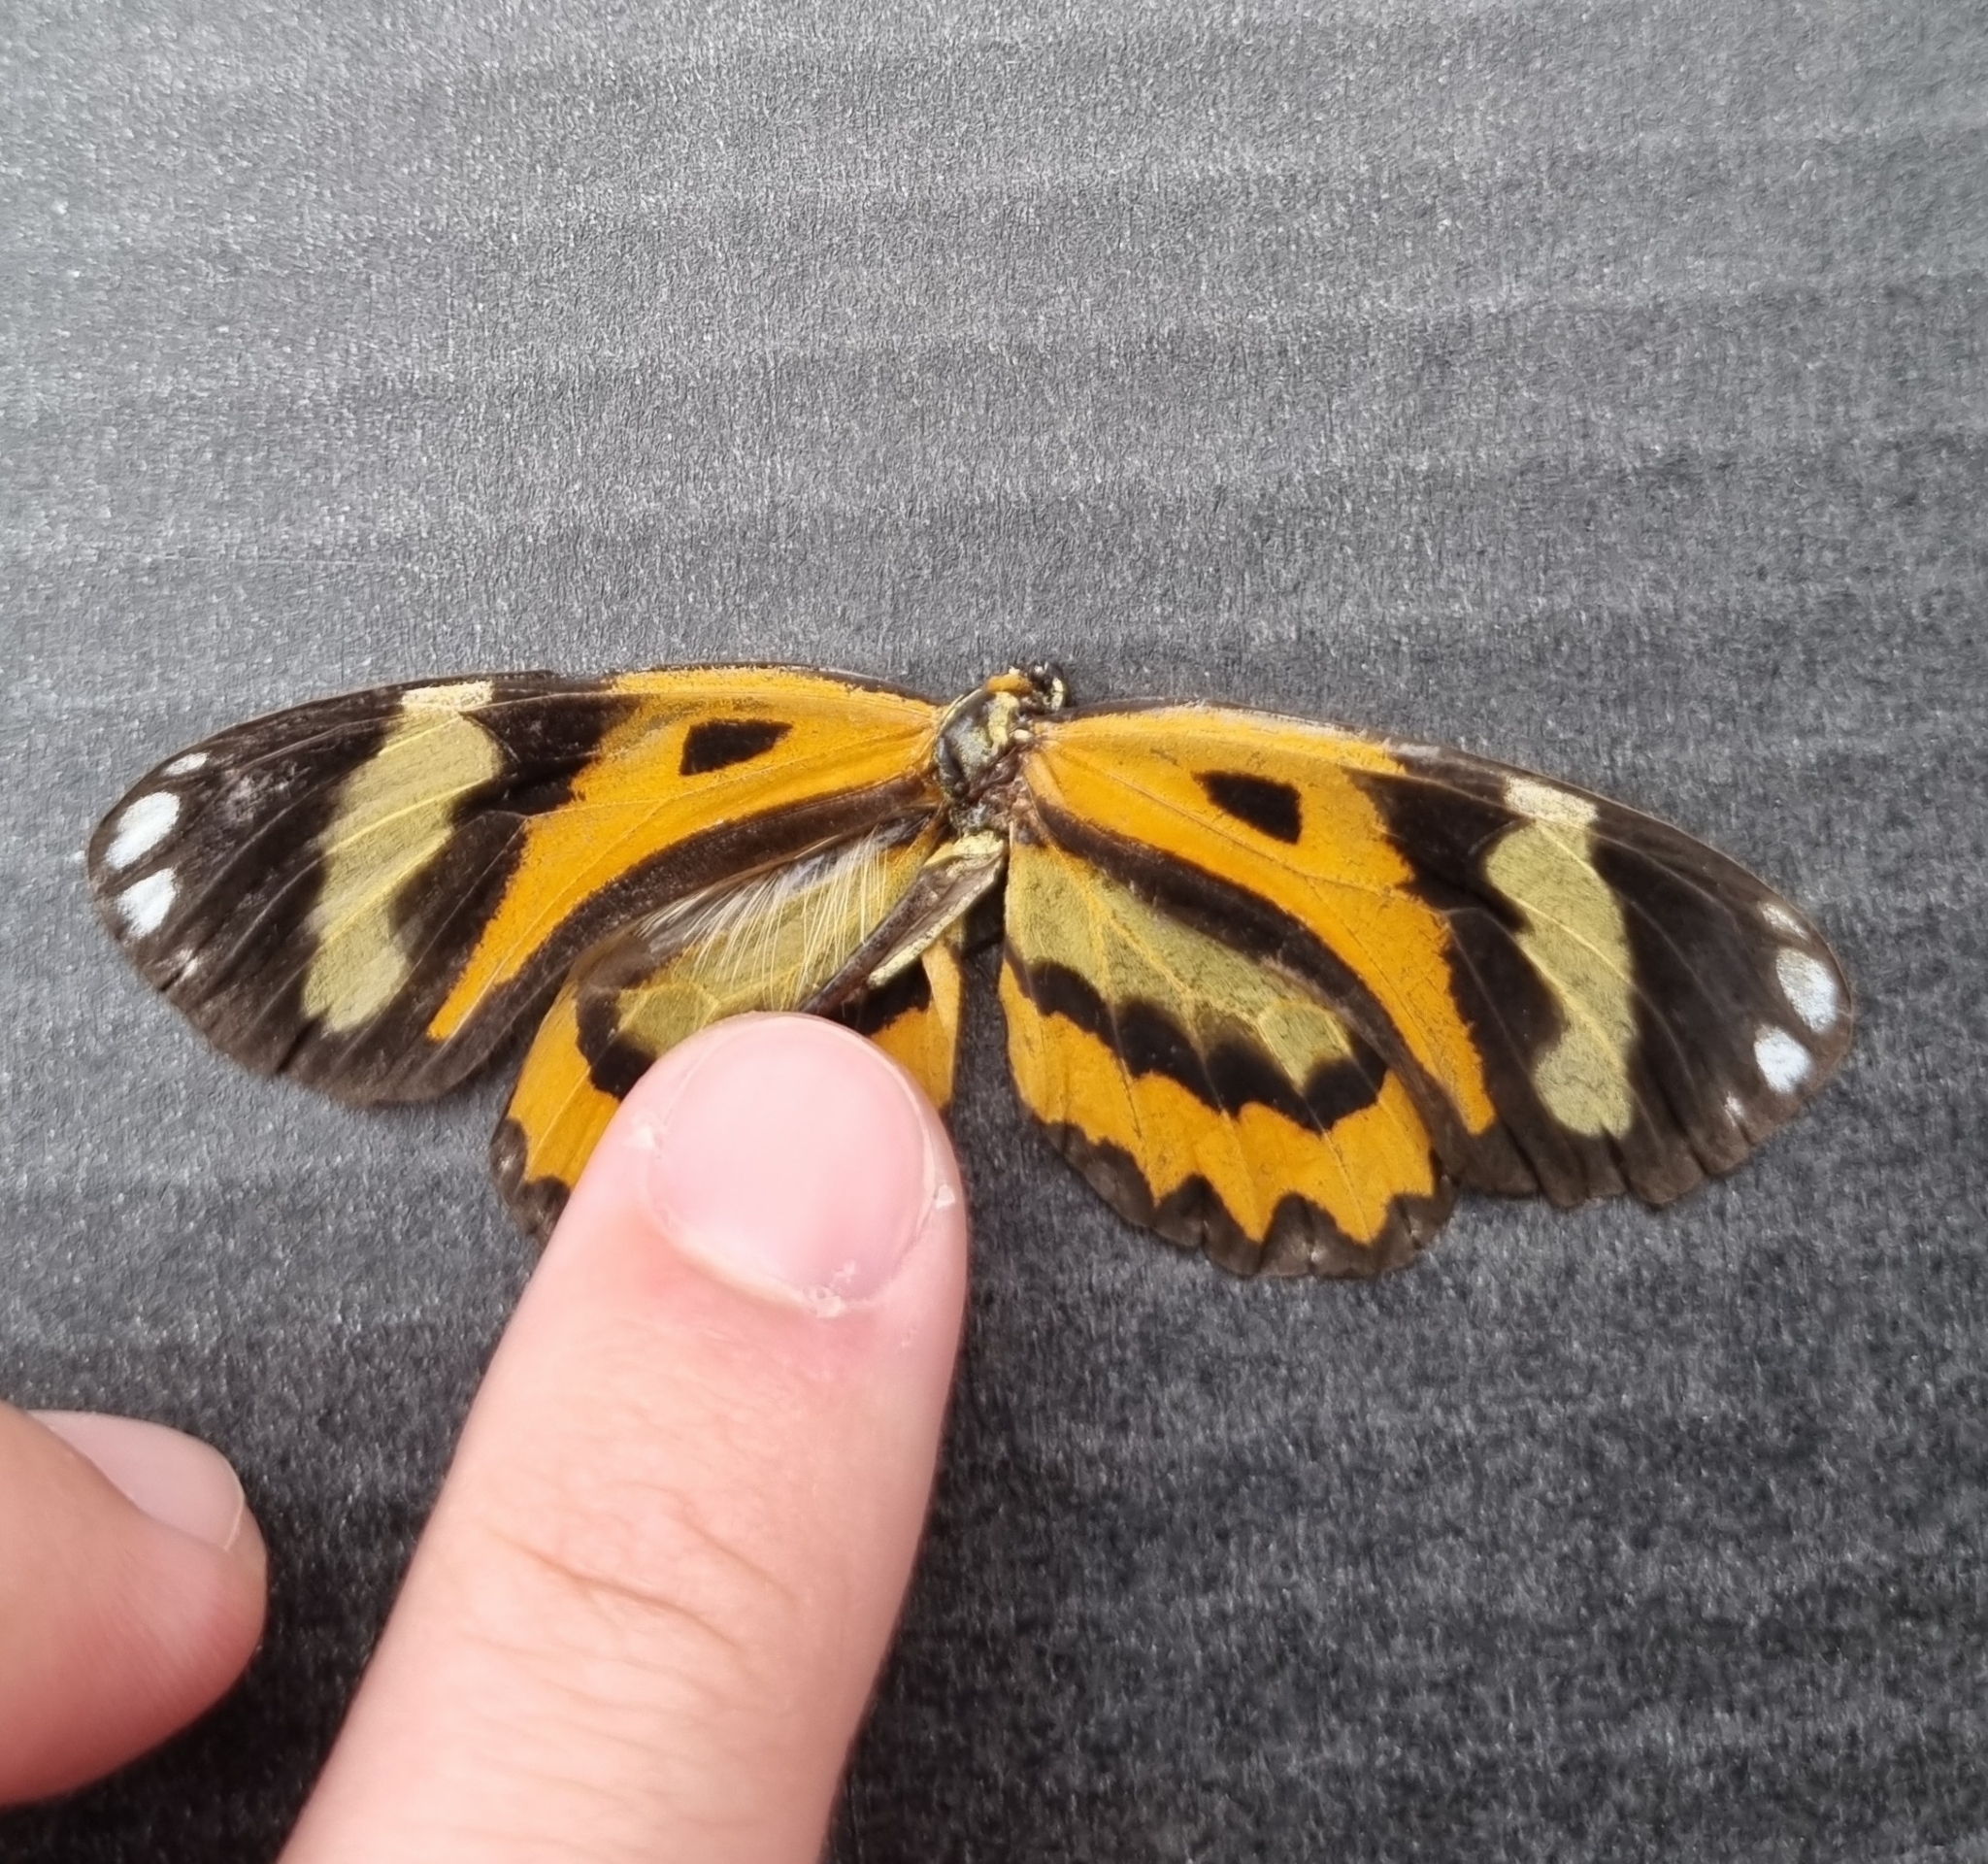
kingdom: Animalia
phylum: Arthropoda
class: Insecta
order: Lepidoptera
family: Nymphalidae
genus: Placidina
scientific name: Placidina euryanassa
